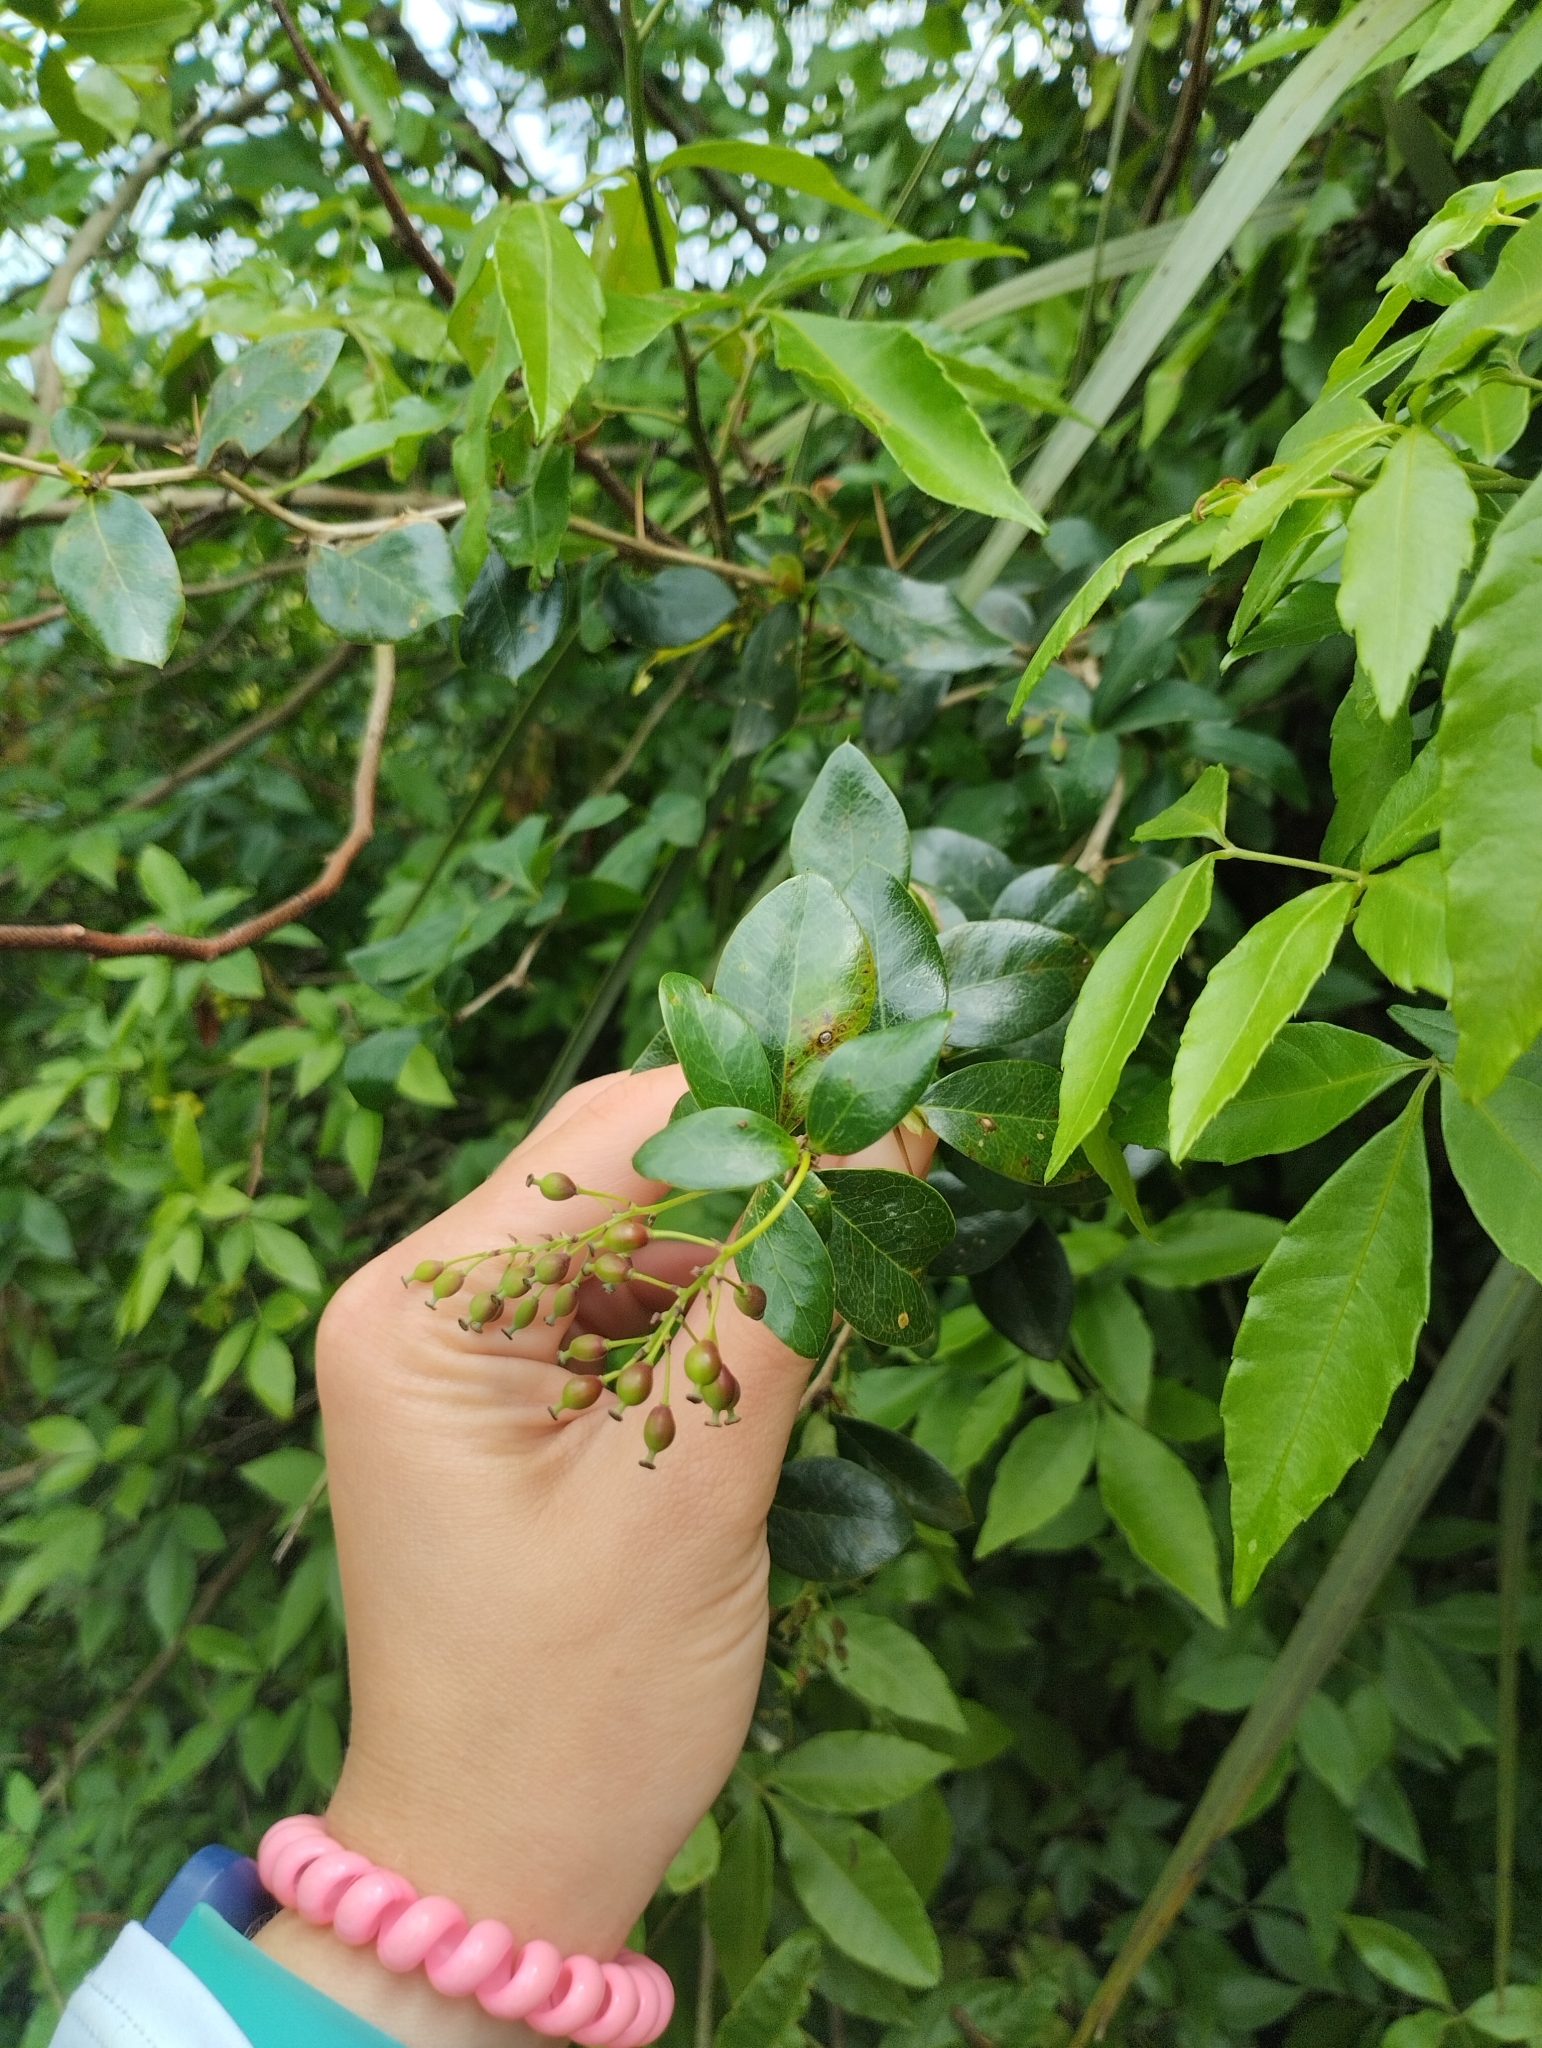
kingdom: Plantae
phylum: Tracheophyta
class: Magnoliopsida
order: Ranunculales
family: Berberidaceae
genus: Berberis
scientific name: Berberis laurina
